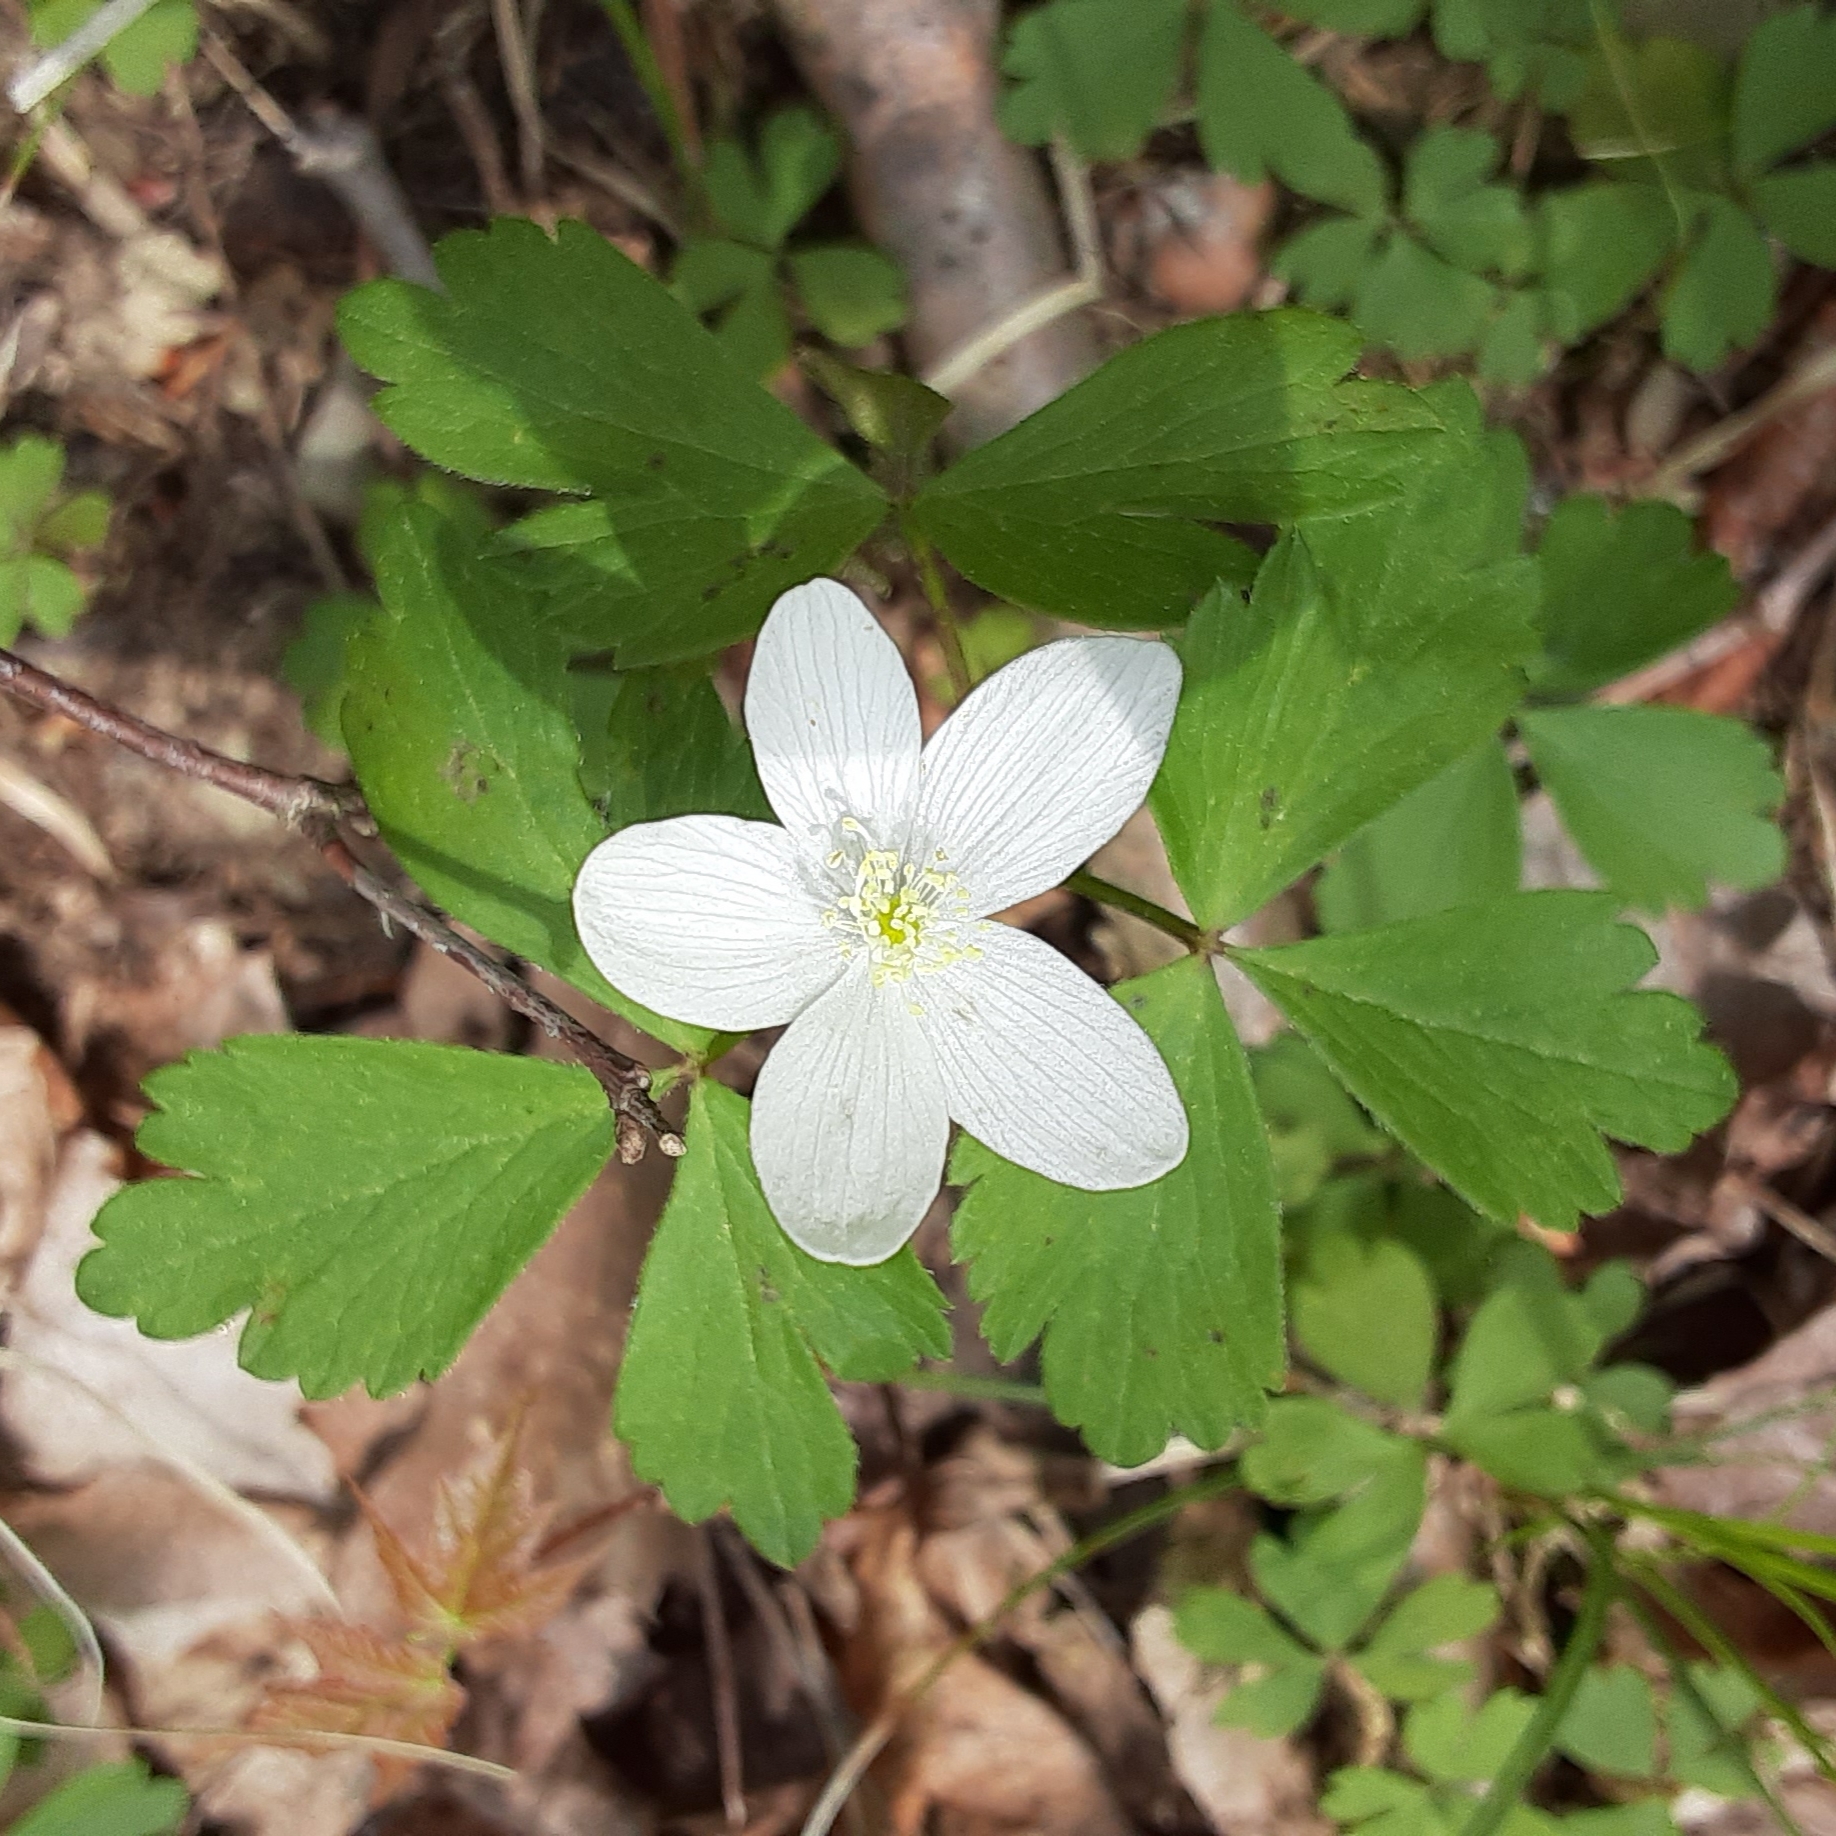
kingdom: Plantae
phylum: Tracheophyta
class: Magnoliopsida
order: Ranunculales
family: Ranunculaceae
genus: Anemone
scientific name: Anemone quinquefolia
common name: Wood anemone
